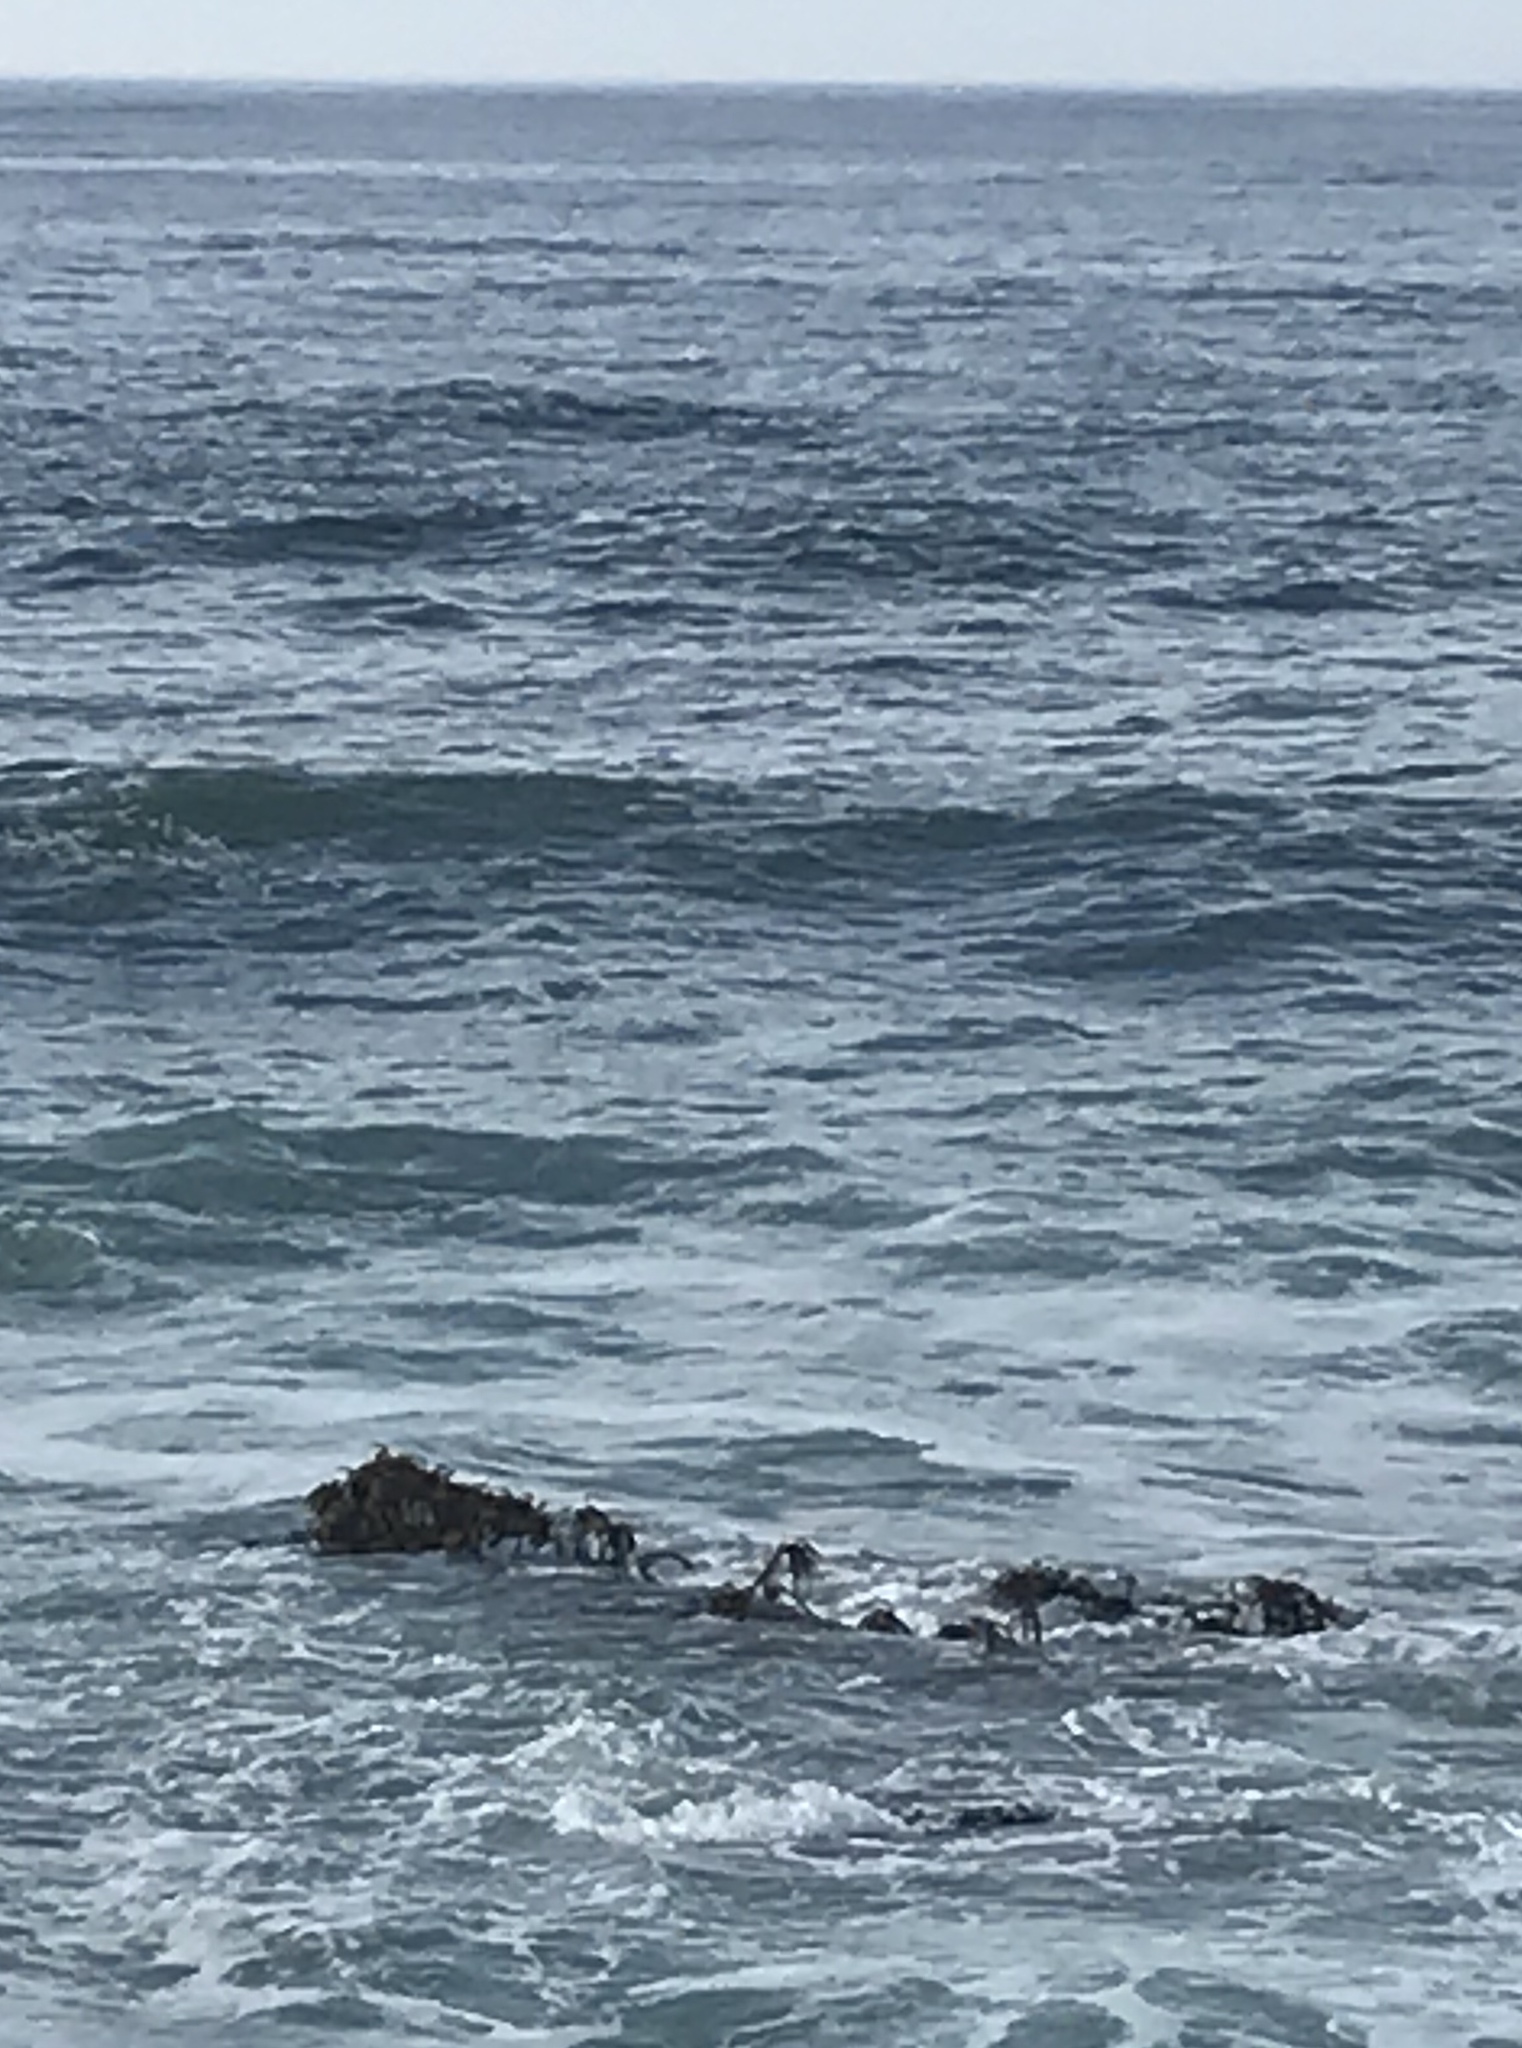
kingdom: Chromista
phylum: Ochrophyta
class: Phaeophyceae
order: Laminariales
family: Laminariaceae
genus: Postelsia
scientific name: Postelsia palmiformis
